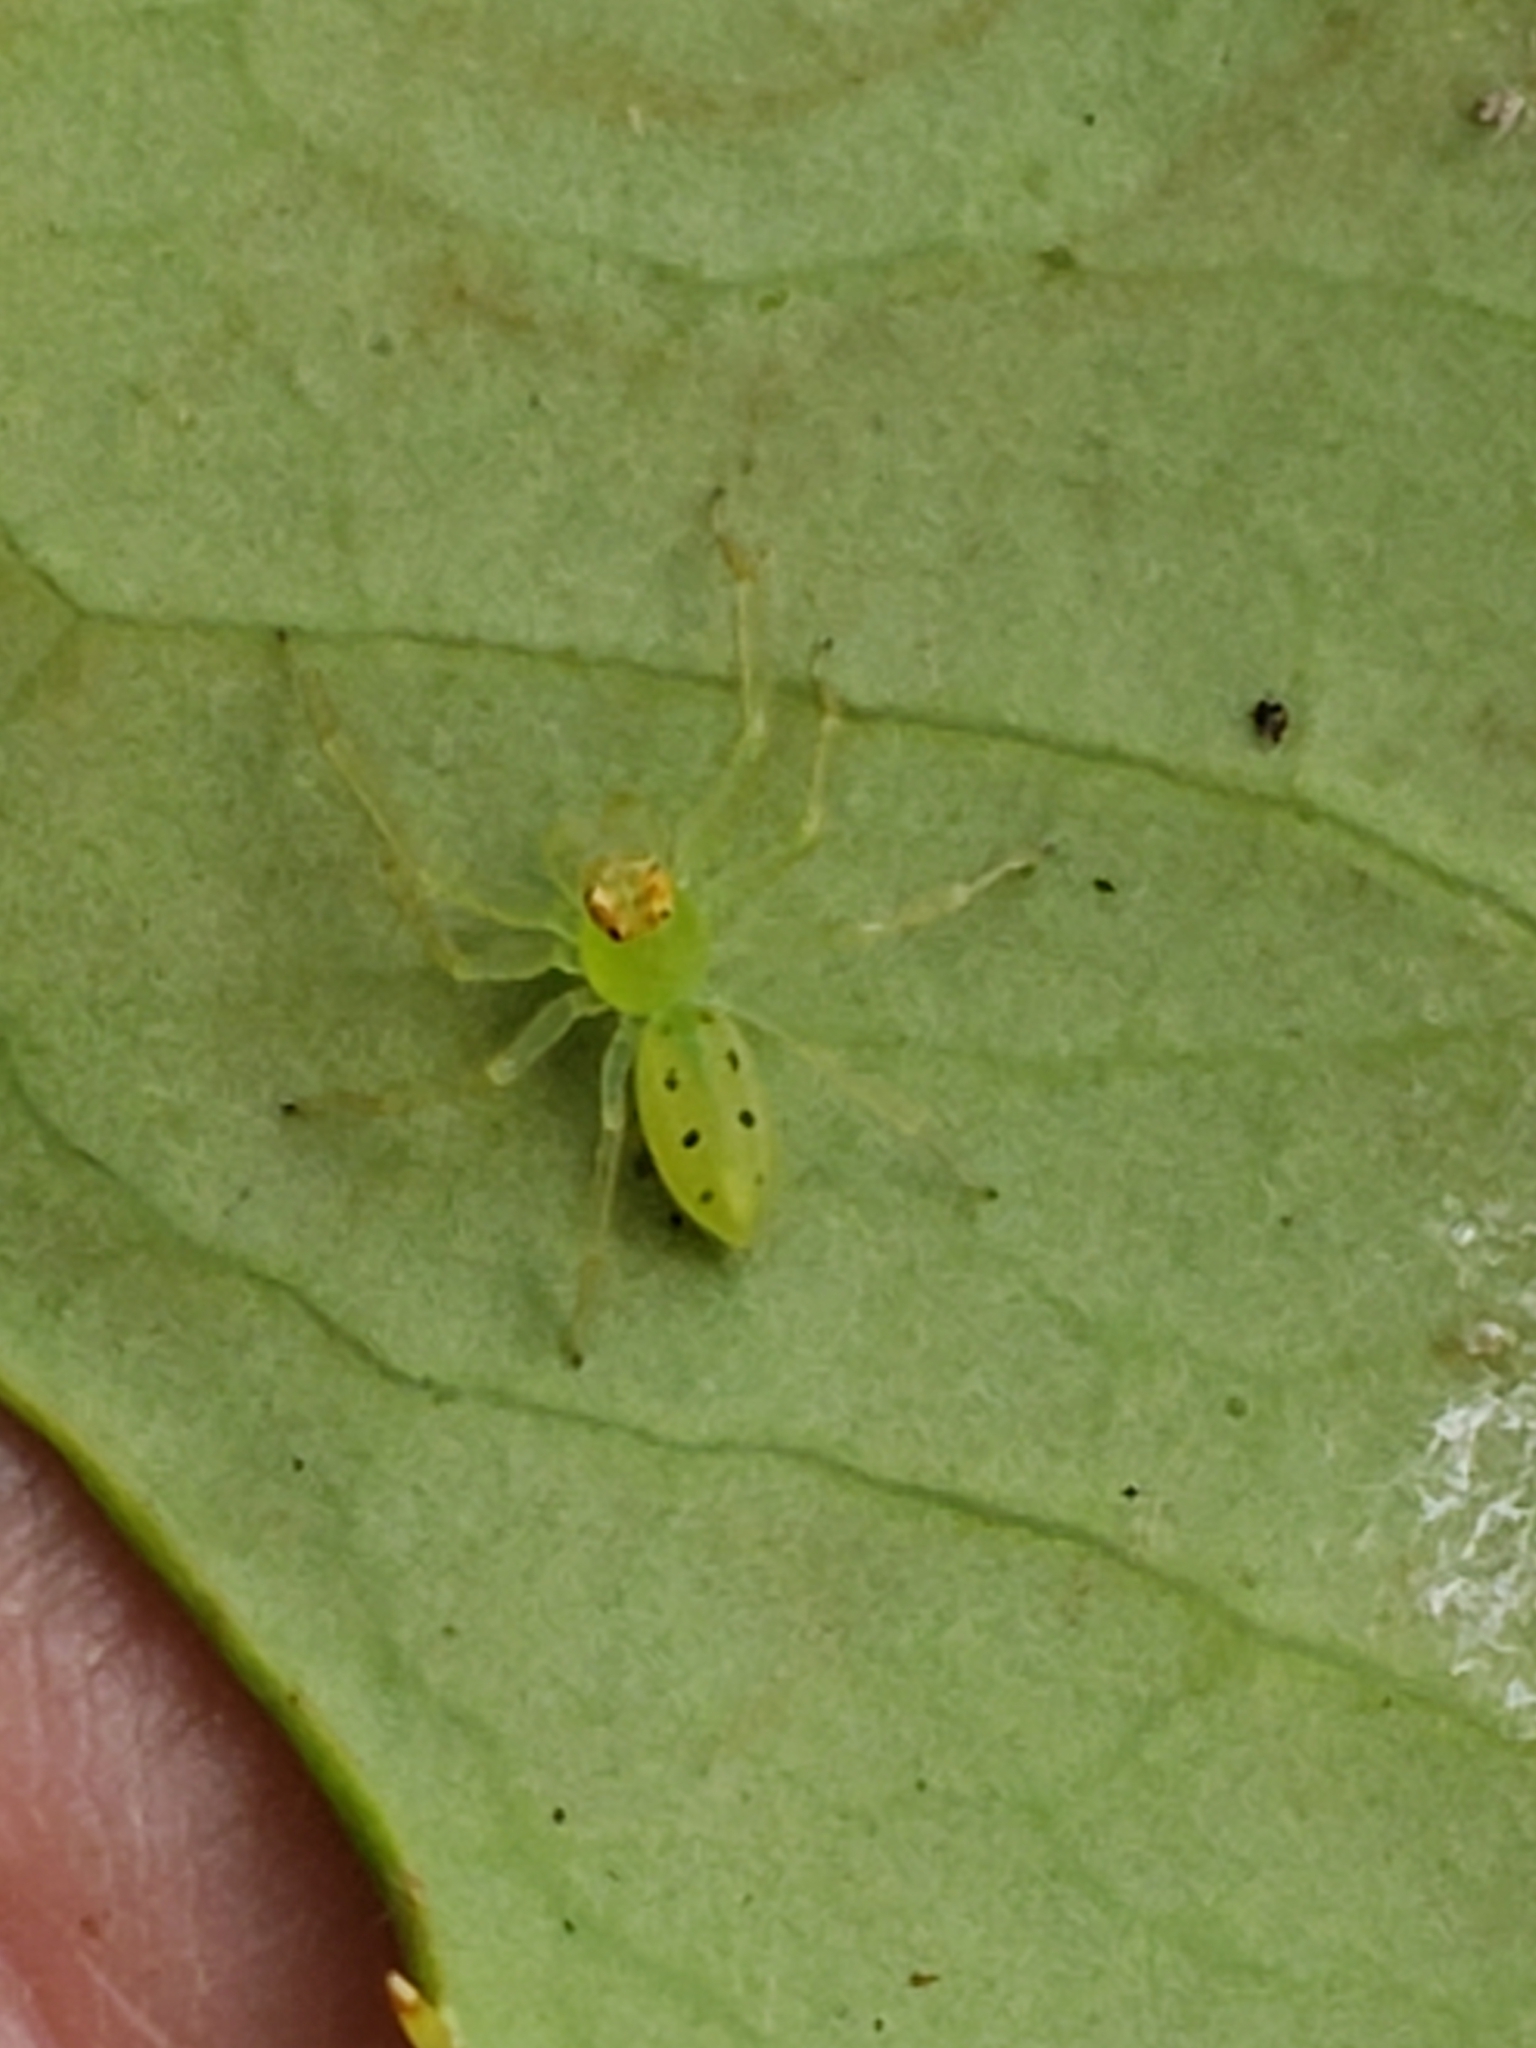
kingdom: Animalia
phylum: Arthropoda
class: Arachnida
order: Araneae
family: Salticidae
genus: Lyssomanes
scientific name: Lyssomanes viridis
